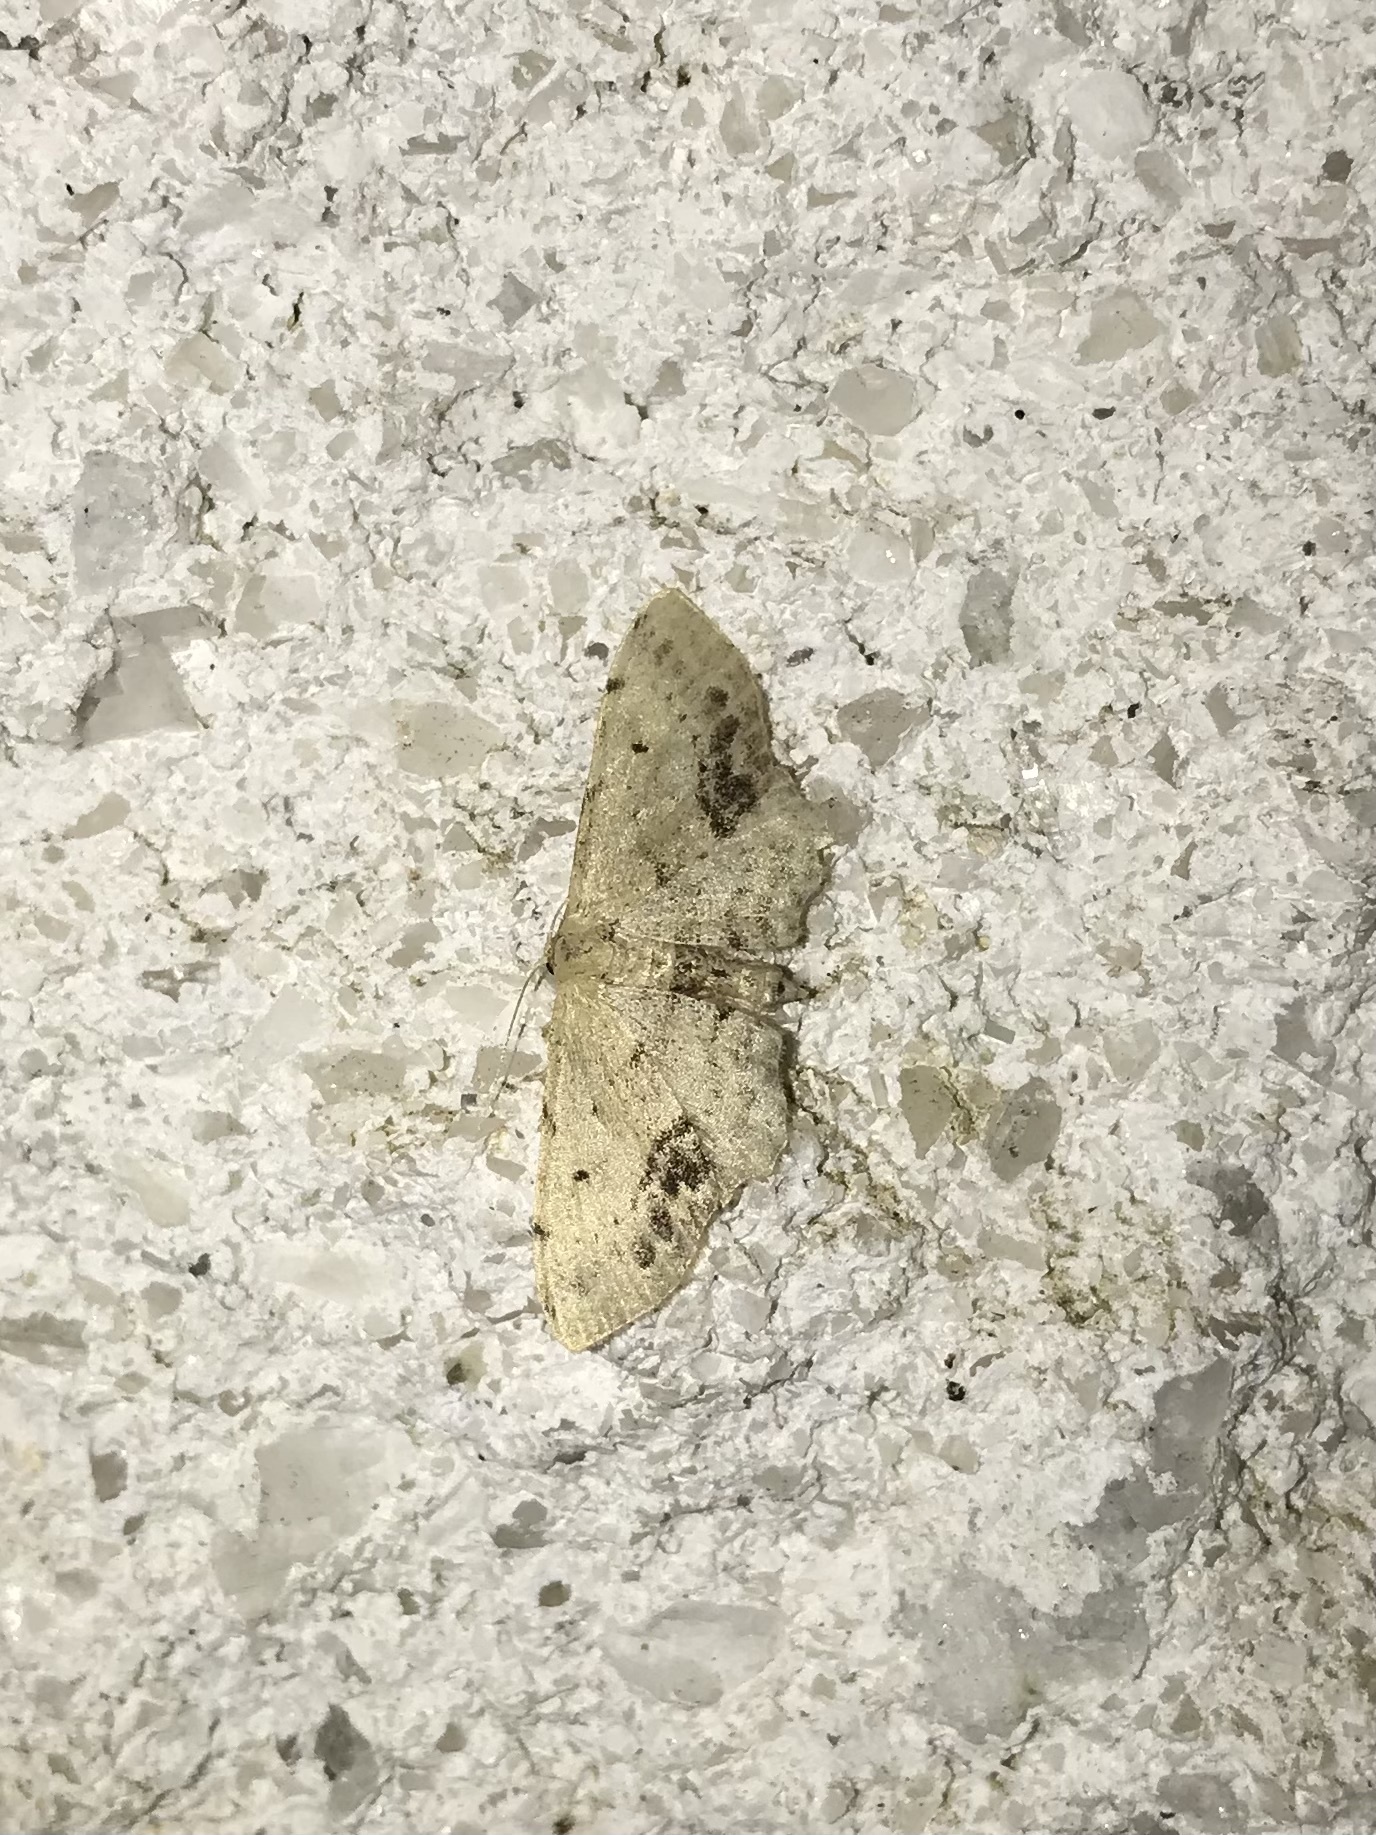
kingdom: Animalia
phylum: Arthropoda
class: Insecta
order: Lepidoptera
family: Geometridae
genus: Idaea
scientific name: Idaea dimidiata
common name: Single-dotted wave
